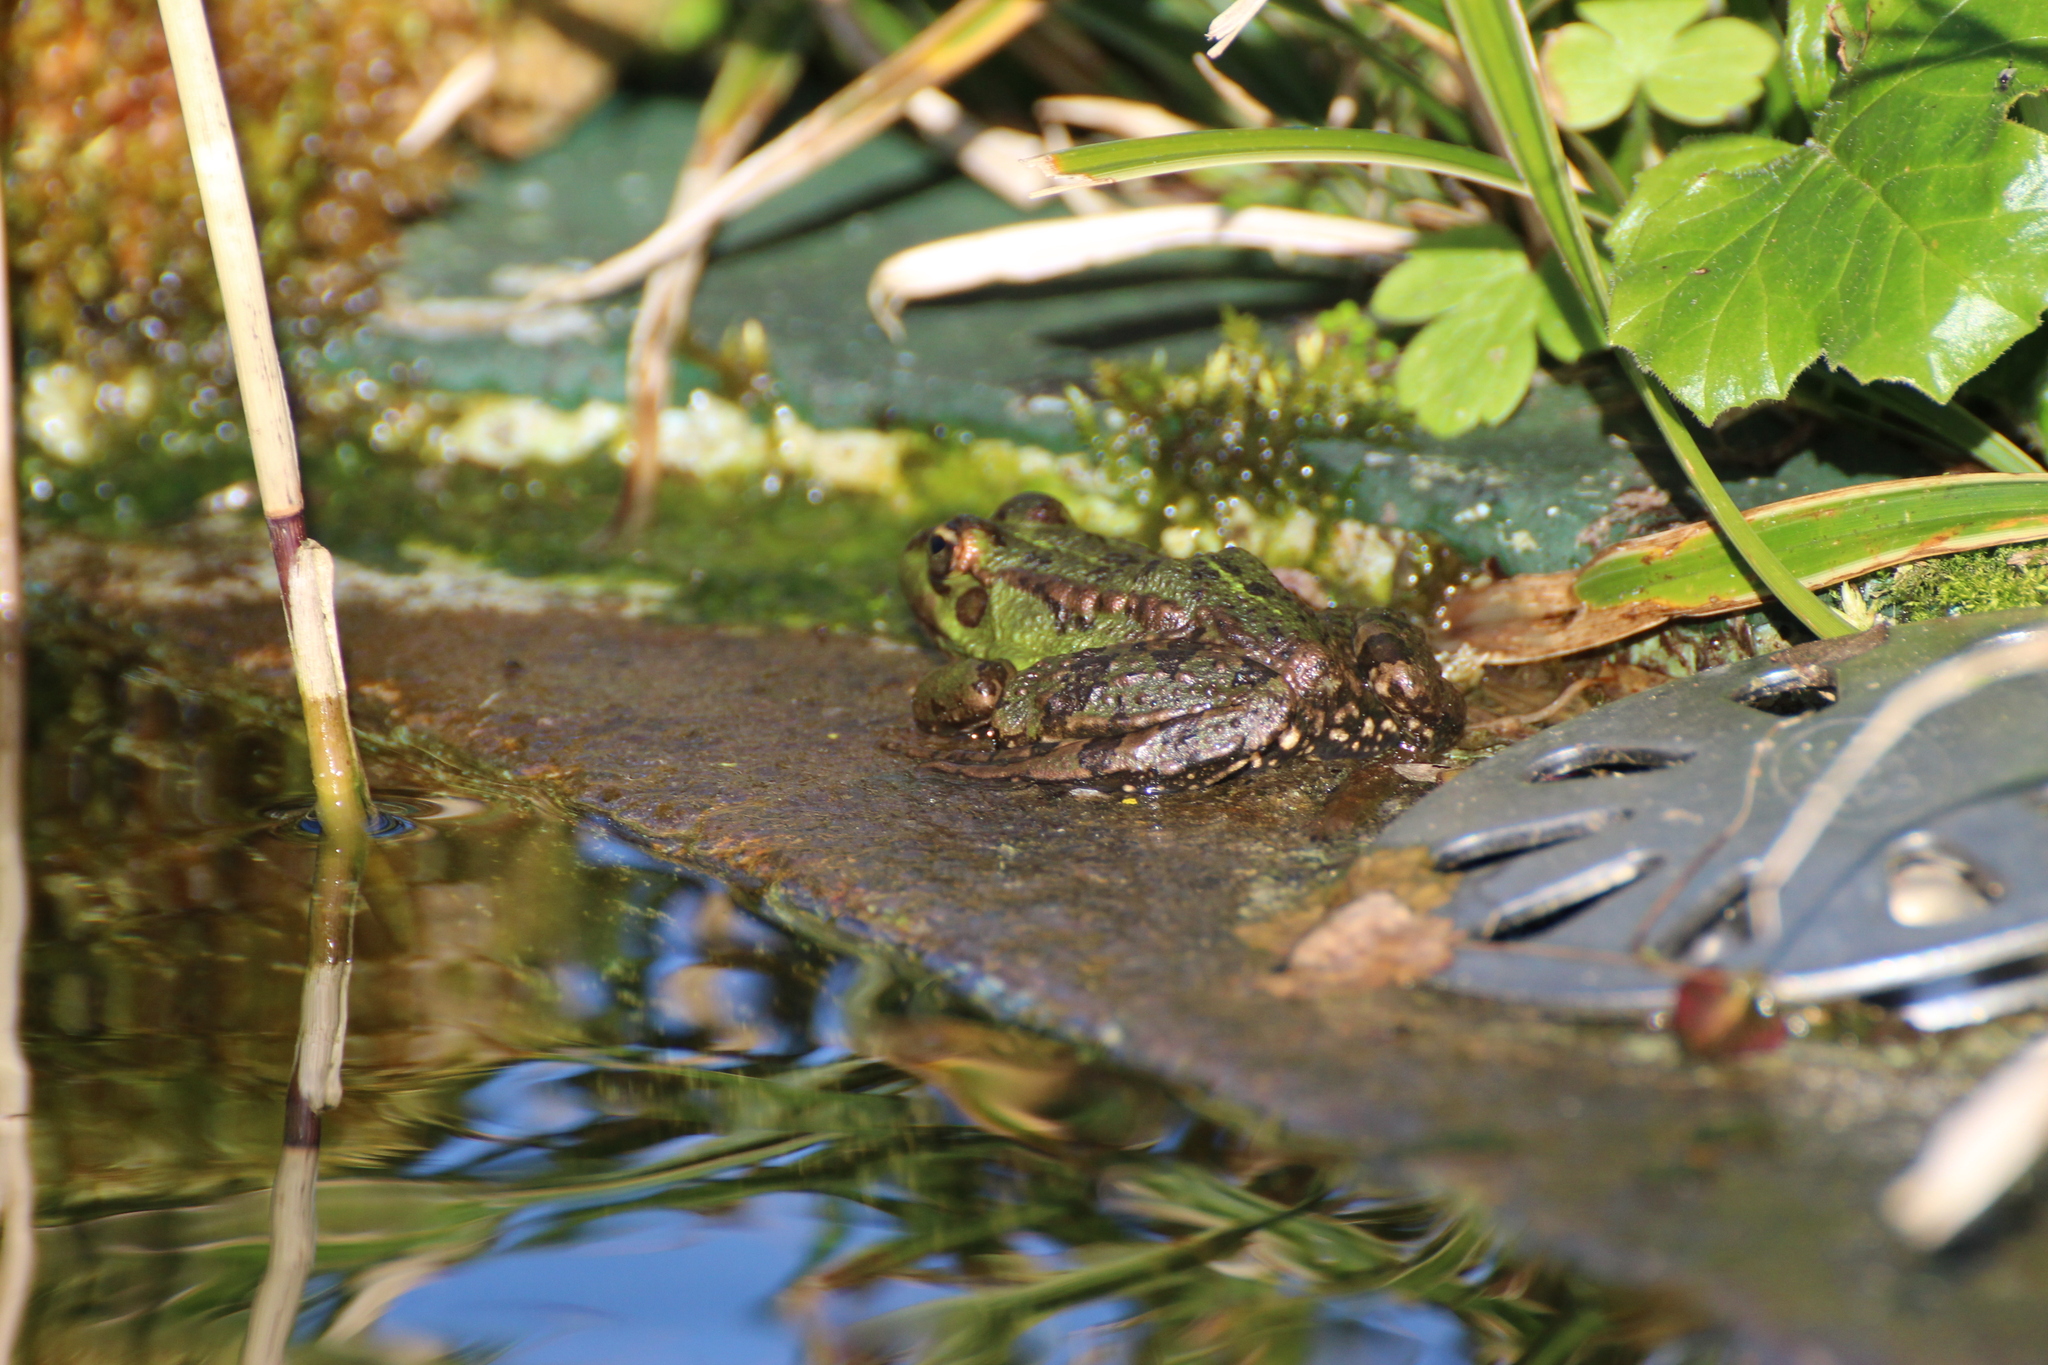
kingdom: Animalia
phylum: Chordata
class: Amphibia
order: Anura
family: Ranidae
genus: Pelophylax
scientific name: Pelophylax perezi
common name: Perez's frog
